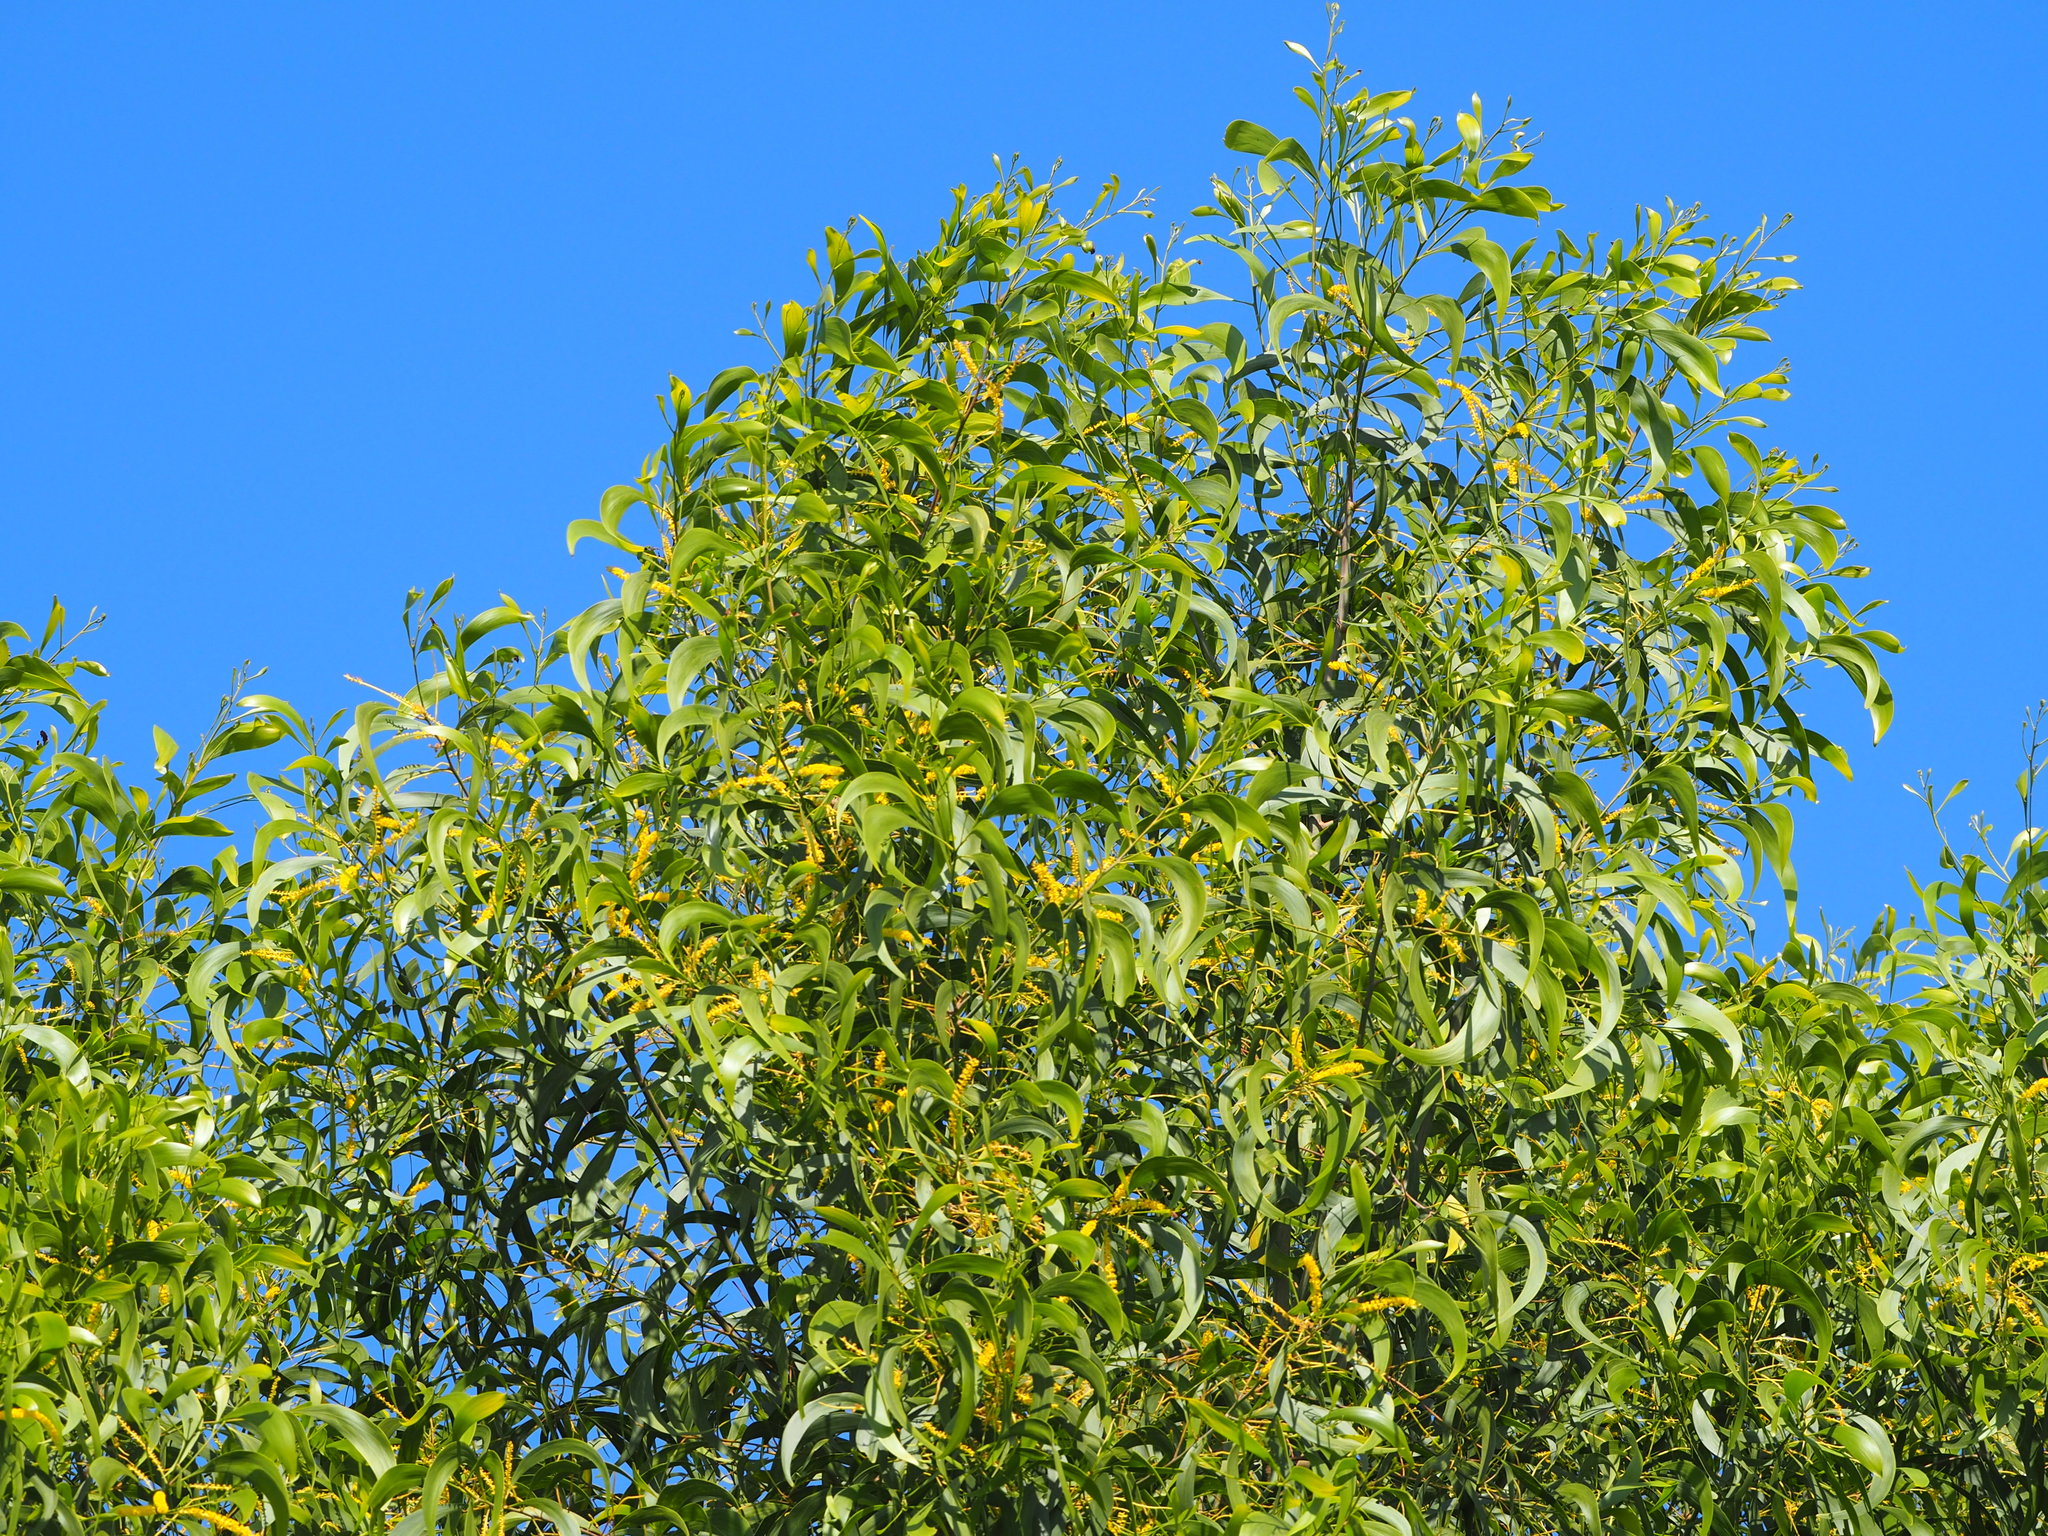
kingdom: Plantae
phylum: Tracheophyta
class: Magnoliopsida
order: Fabales
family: Fabaceae
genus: Acacia
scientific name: Acacia auriculiformis
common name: Earleaf acacia
